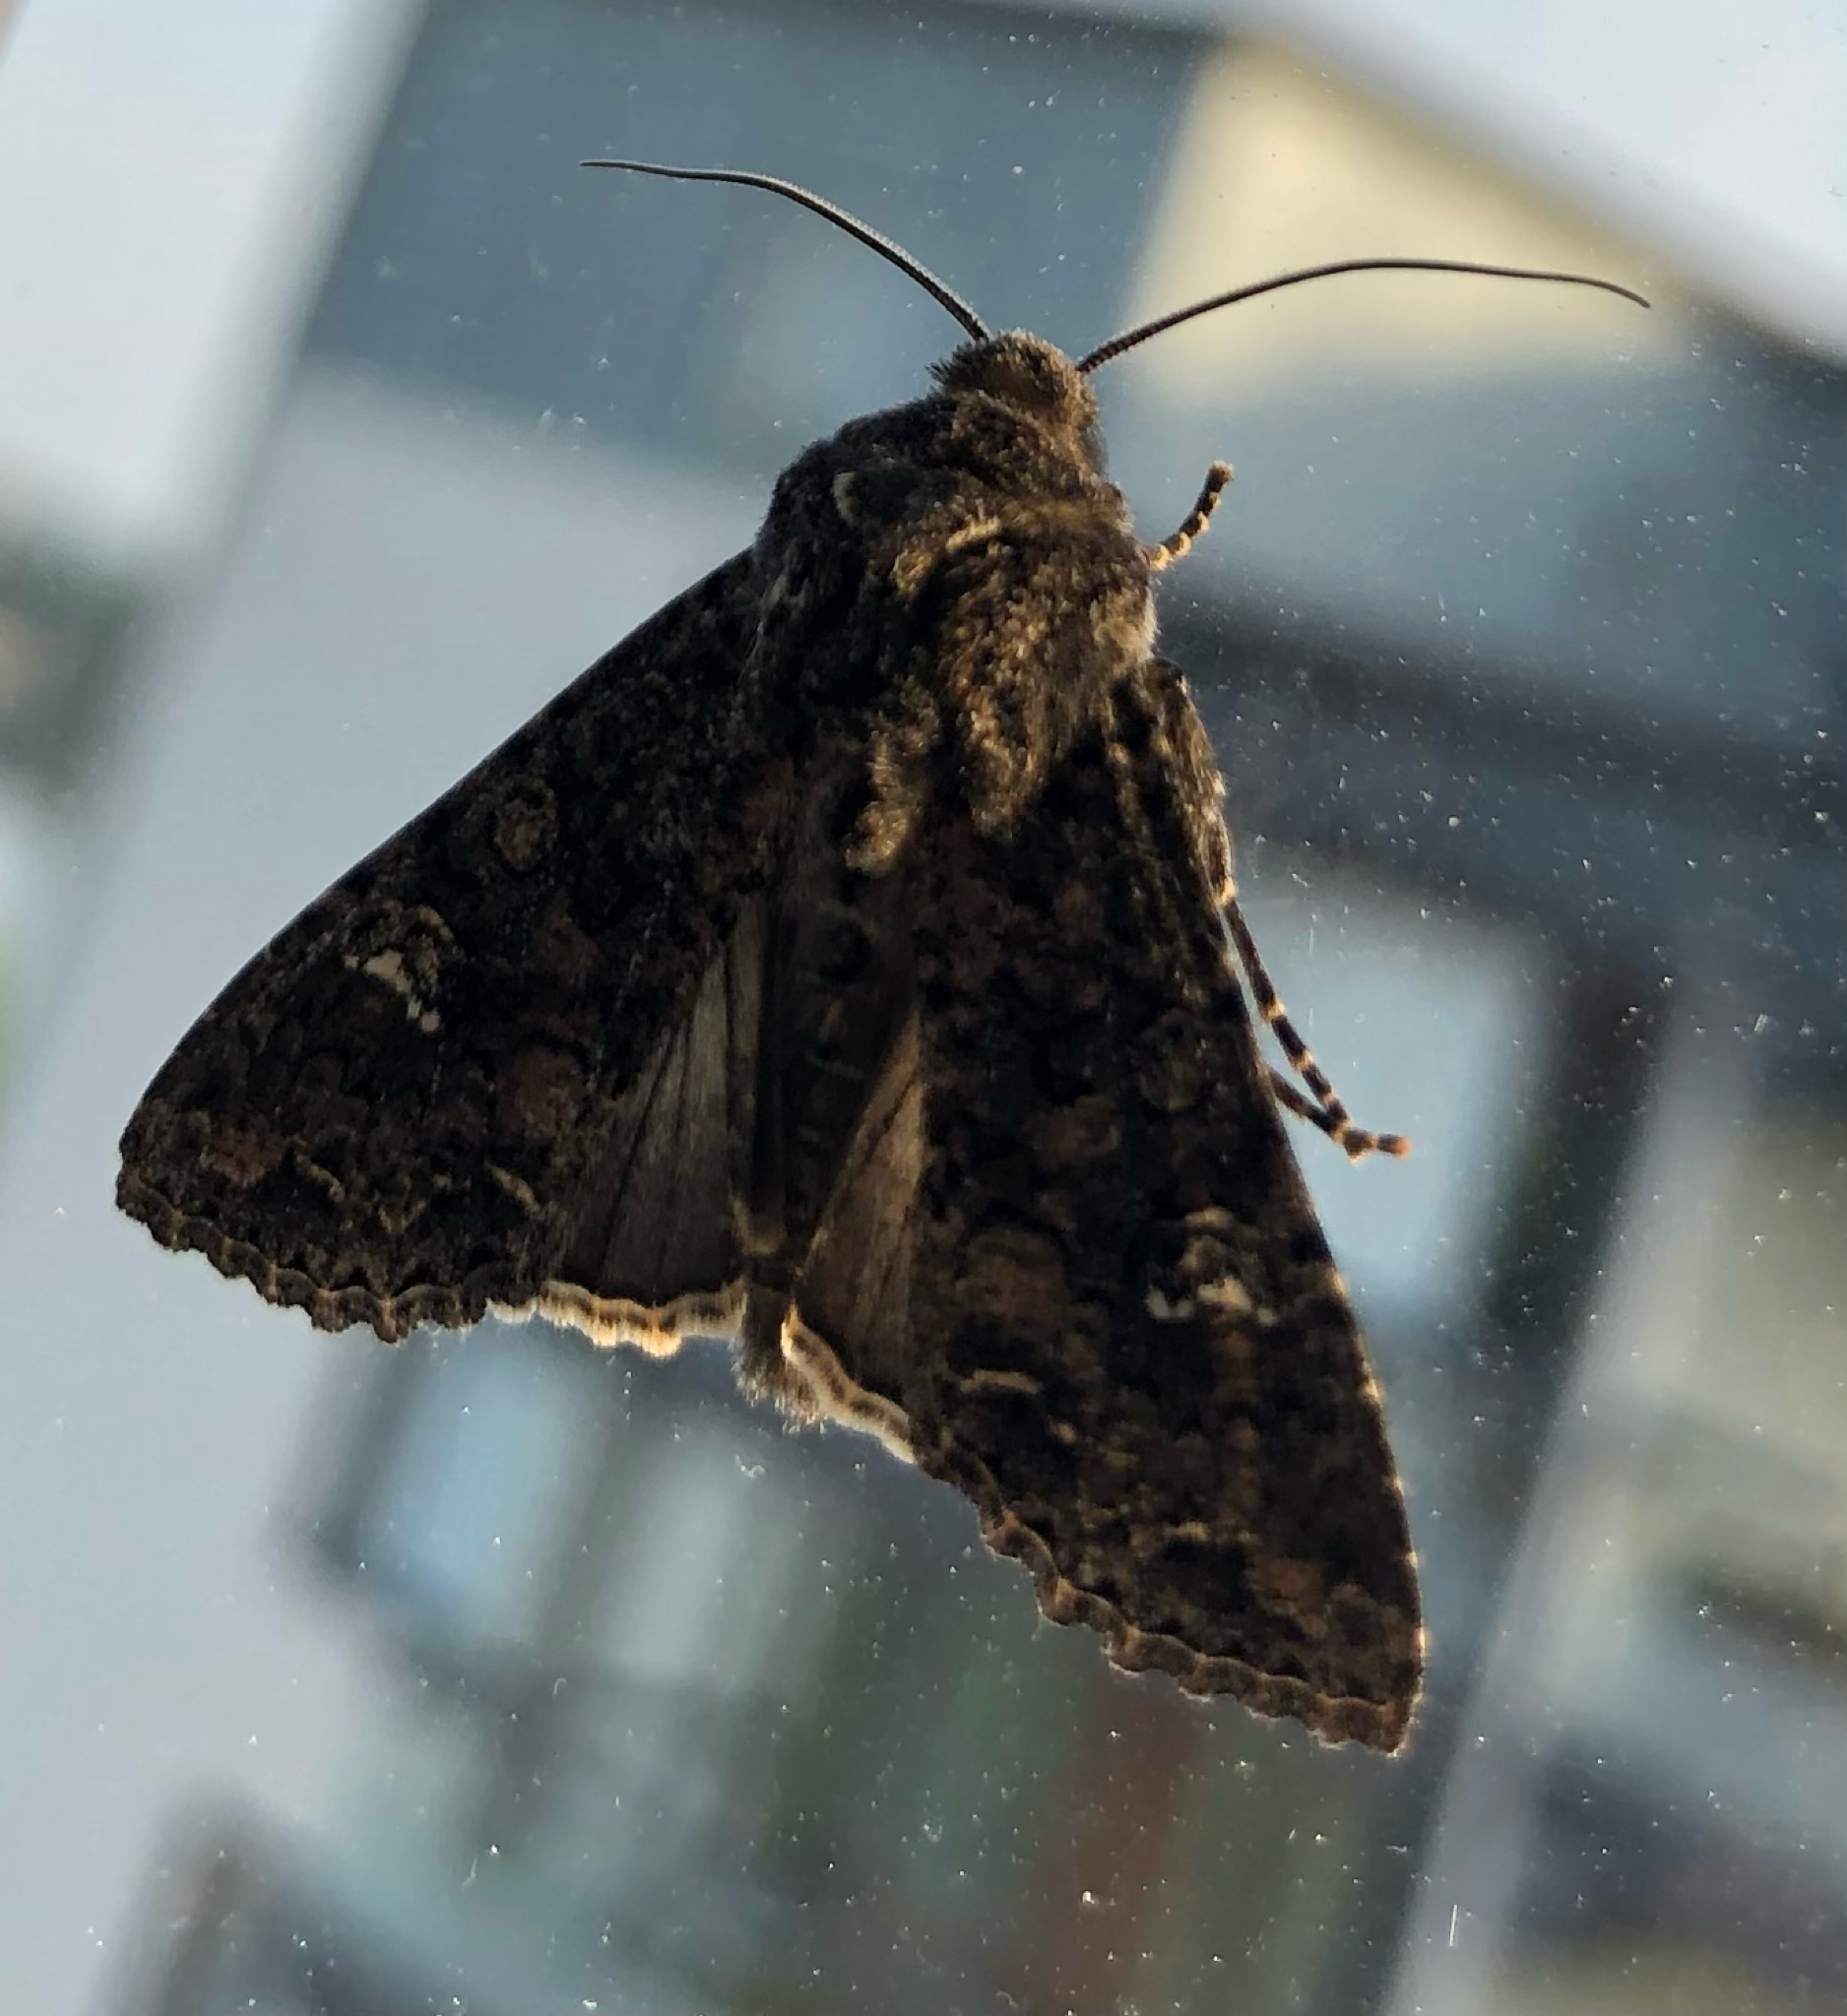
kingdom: Animalia
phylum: Arthropoda
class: Insecta
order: Lepidoptera
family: Noctuidae
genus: Mamestra
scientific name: Mamestra brassicae
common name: Cabbage moth
